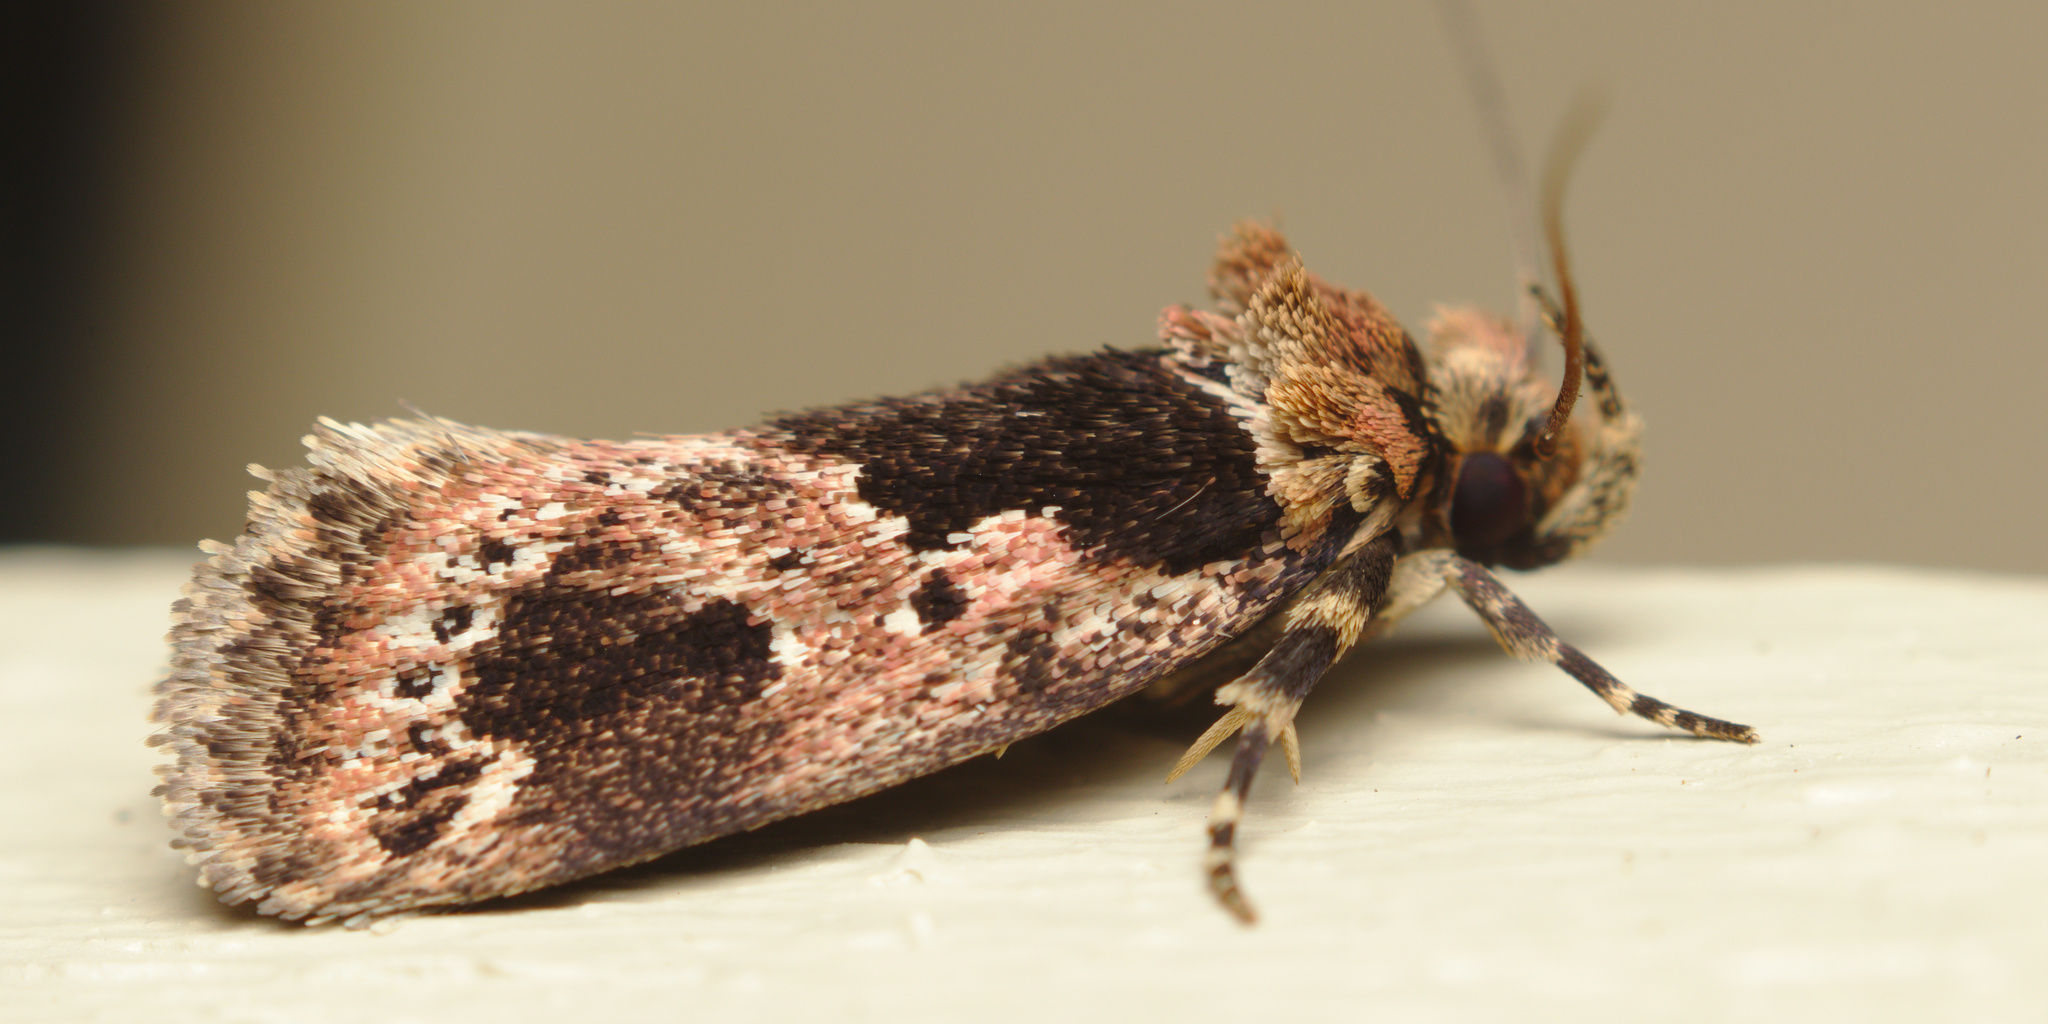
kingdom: Animalia
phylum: Arthropoda
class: Insecta
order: Lepidoptera
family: Oecophoridae
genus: Barea
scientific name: Barea consignatella
